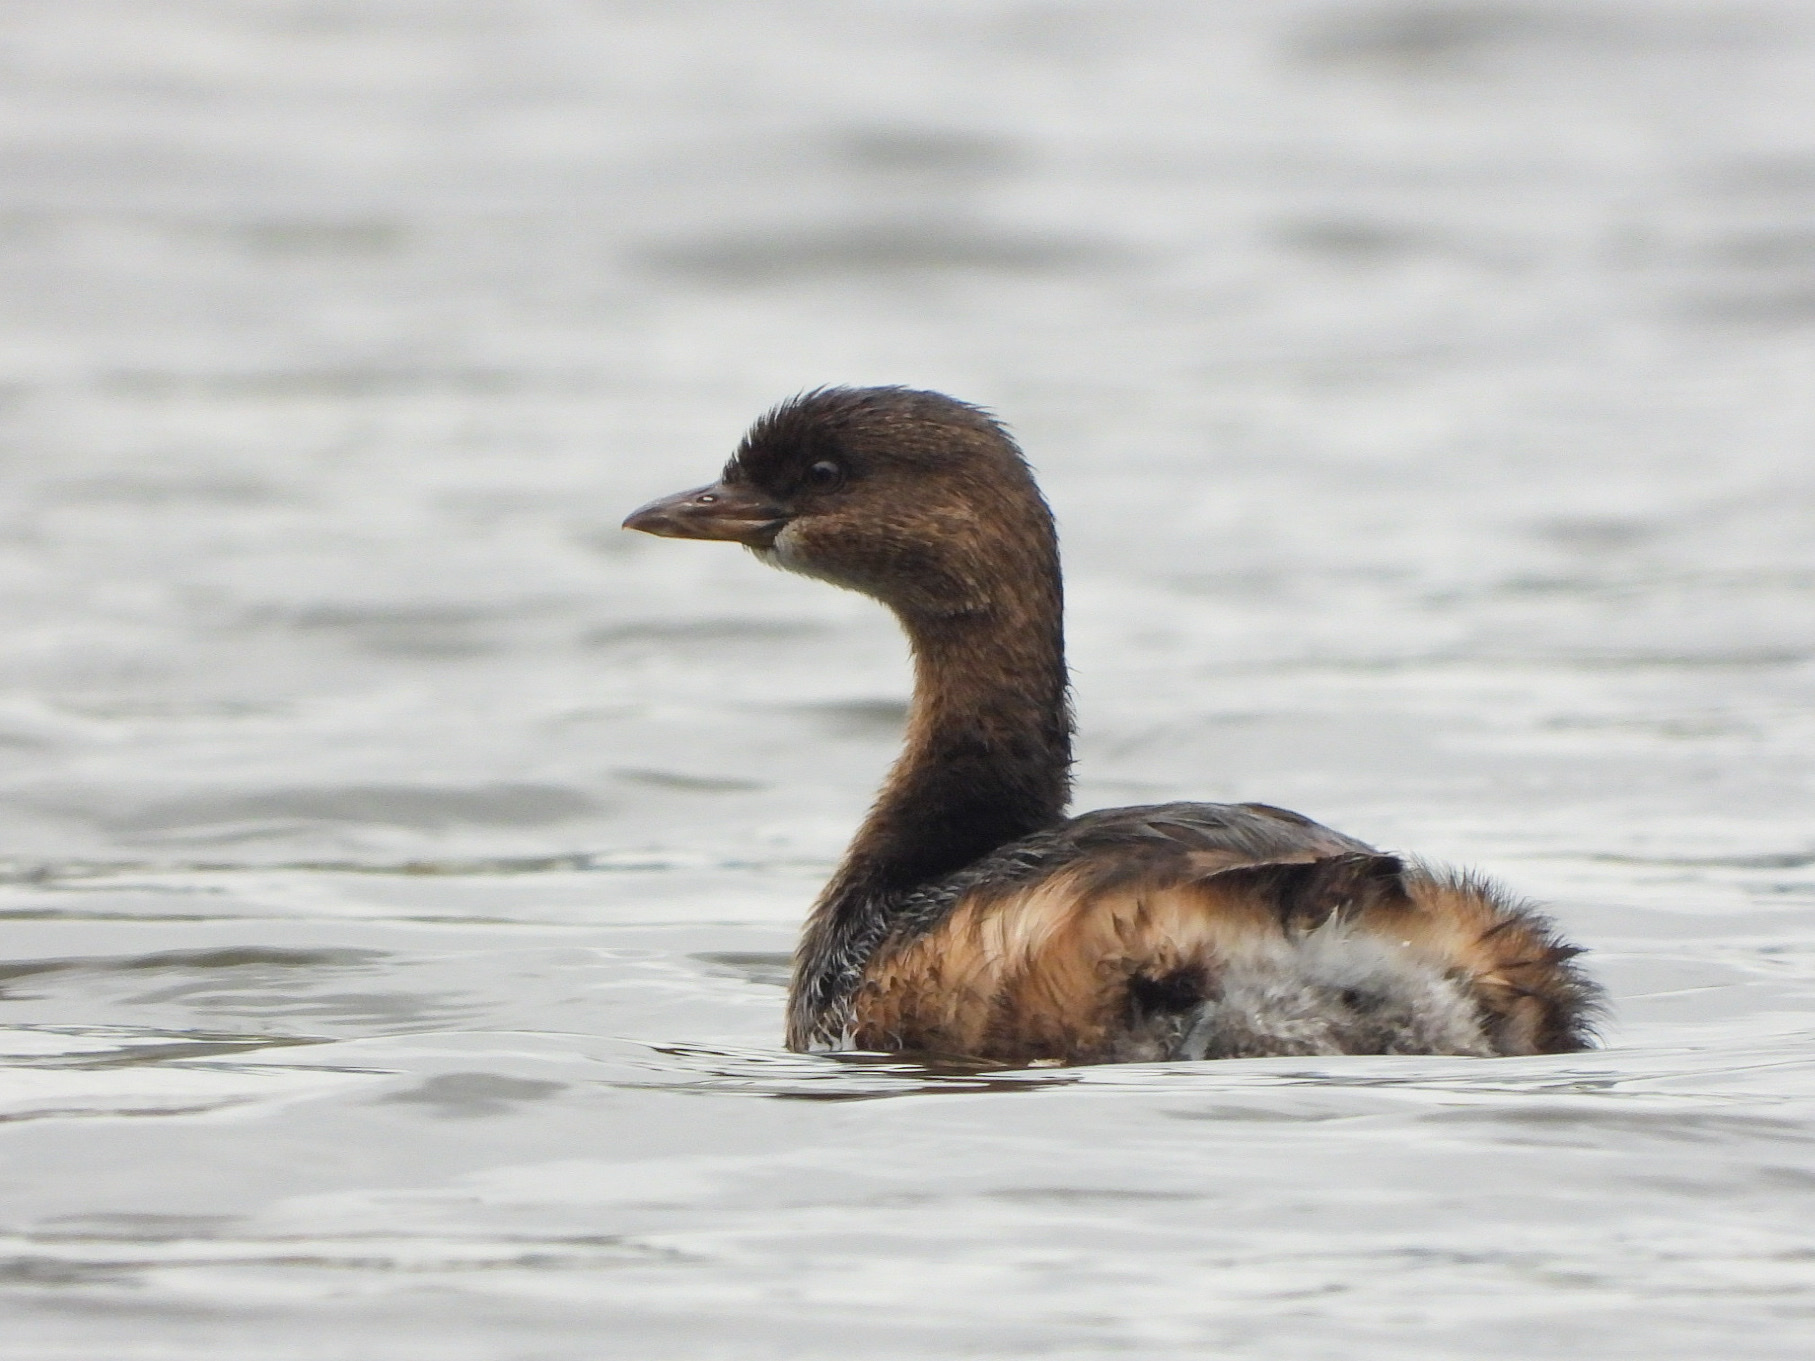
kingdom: Animalia
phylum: Chordata
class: Aves
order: Podicipediformes
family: Podicipedidae
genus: Podilymbus
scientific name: Podilymbus podiceps
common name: Pied-billed grebe
